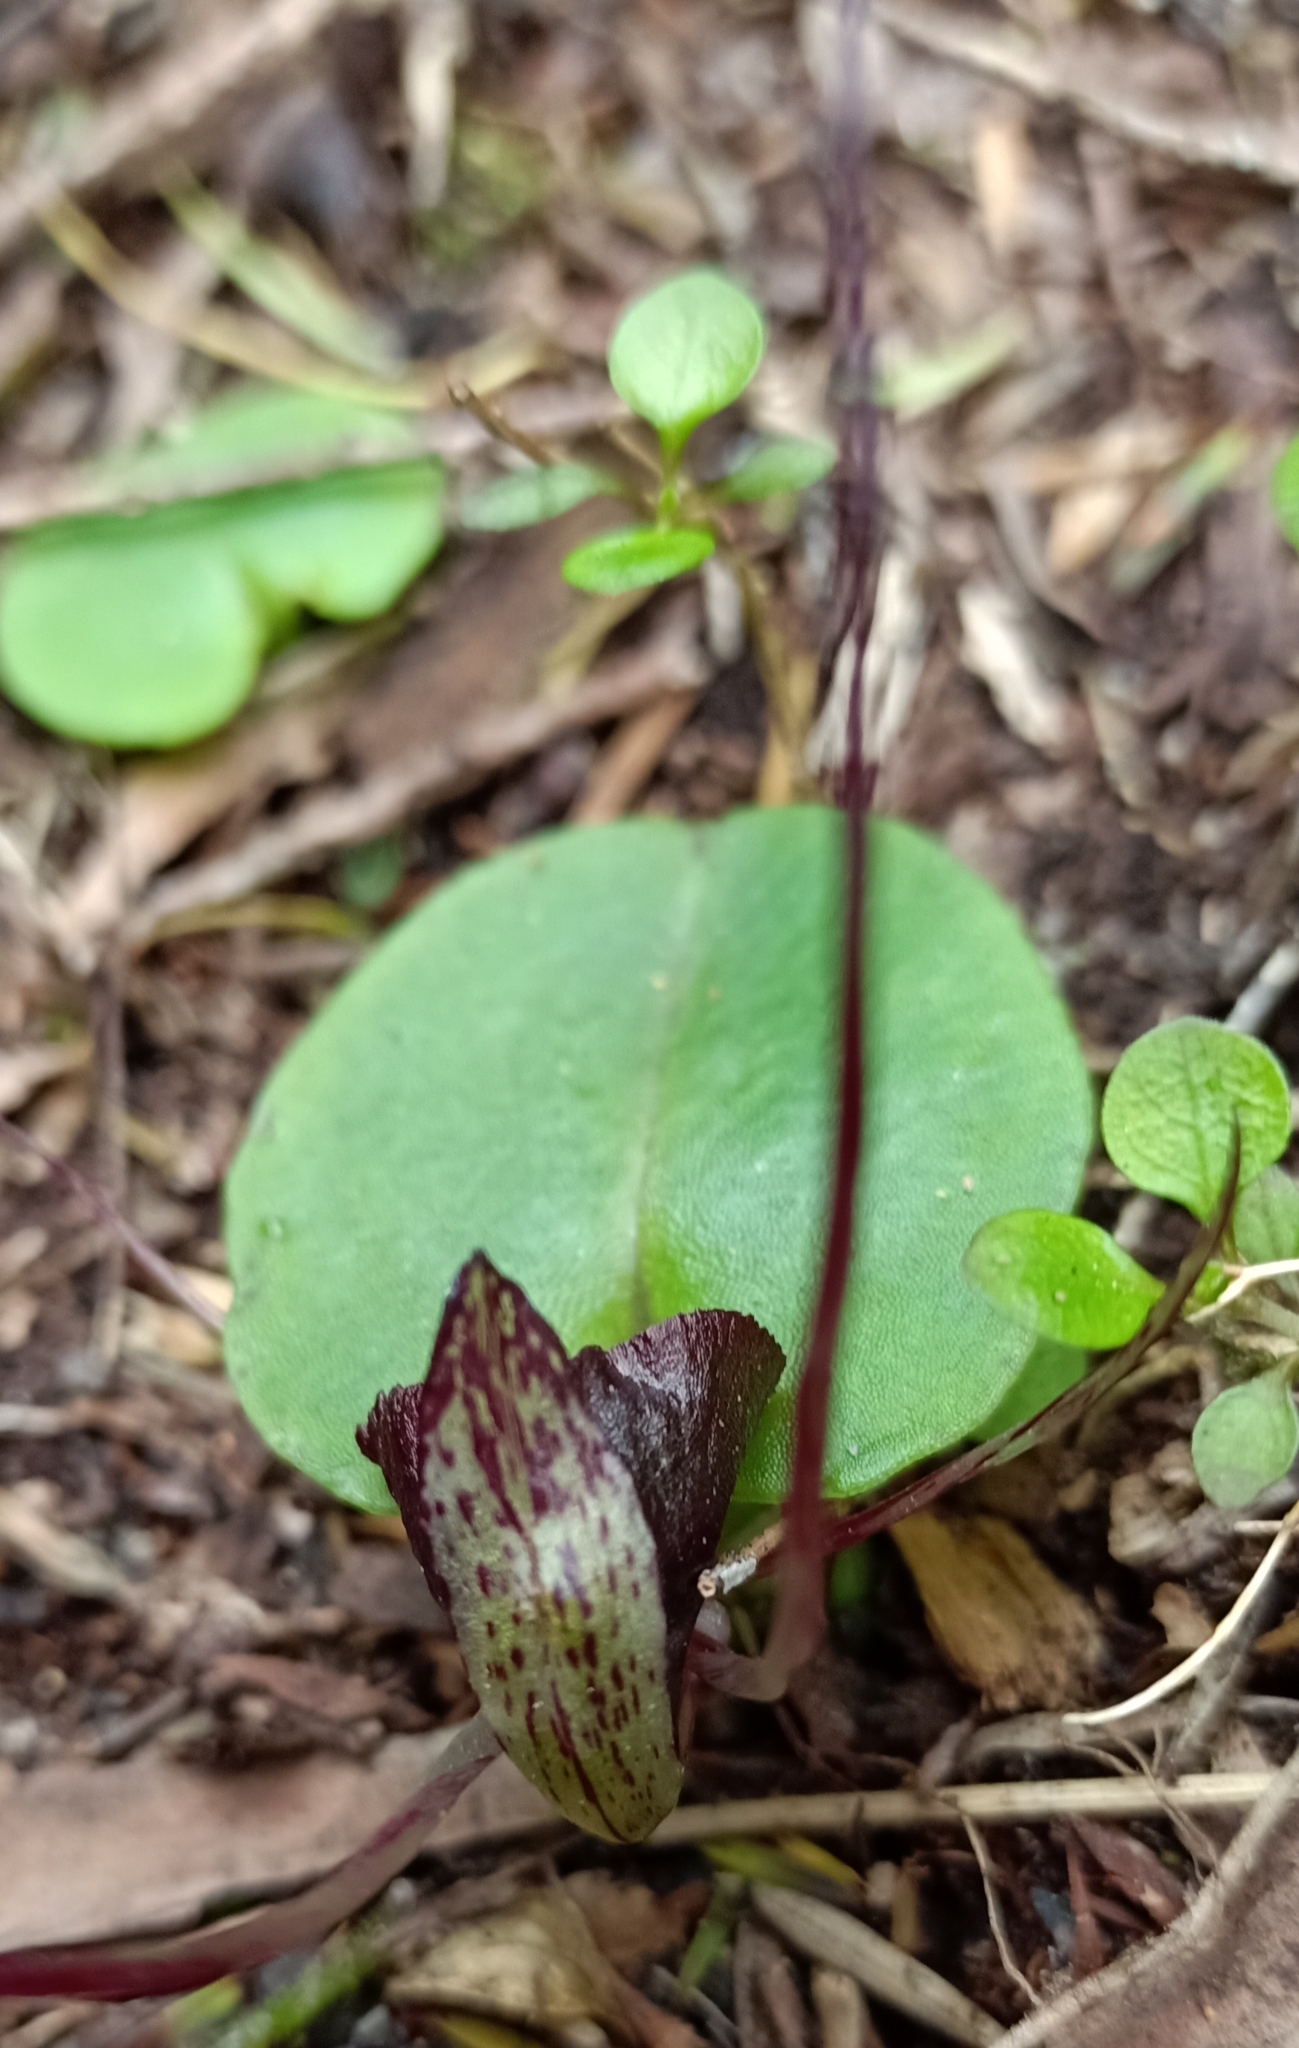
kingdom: Plantae
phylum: Tracheophyta
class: Liliopsida
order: Asparagales
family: Orchidaceae
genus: Corybas
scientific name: Corybas macranthus
